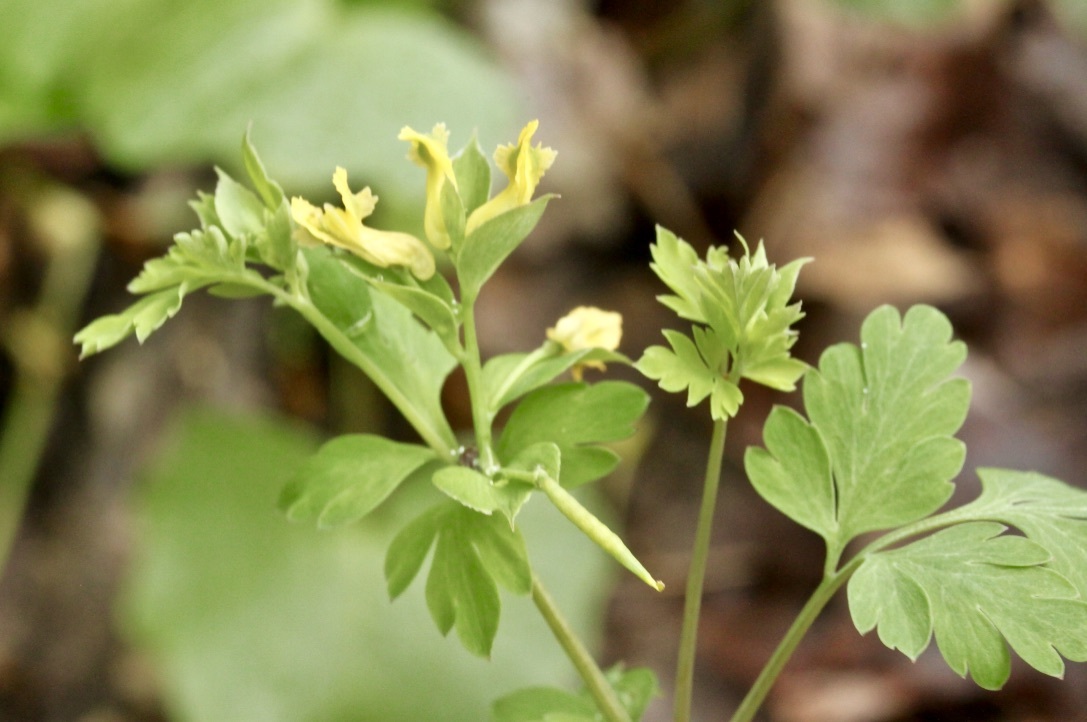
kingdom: Plantae
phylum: Tracheophyta
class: Magnoliopsida
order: Ranunculales
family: Papaveraceae
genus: Corydalis
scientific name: Corydalis flavula
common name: Yellow corydalis
